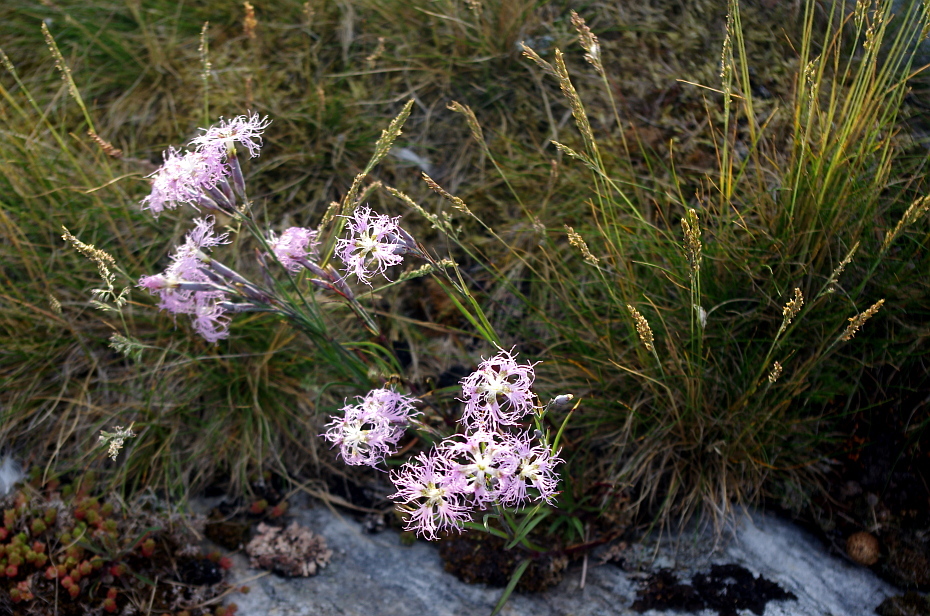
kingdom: Plantae
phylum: Tracheophyta
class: Magnoliopsida
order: Caryophyllales
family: Caryophyllaceae
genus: Dianthus
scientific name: Dianthus superbus
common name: Fringed pink
